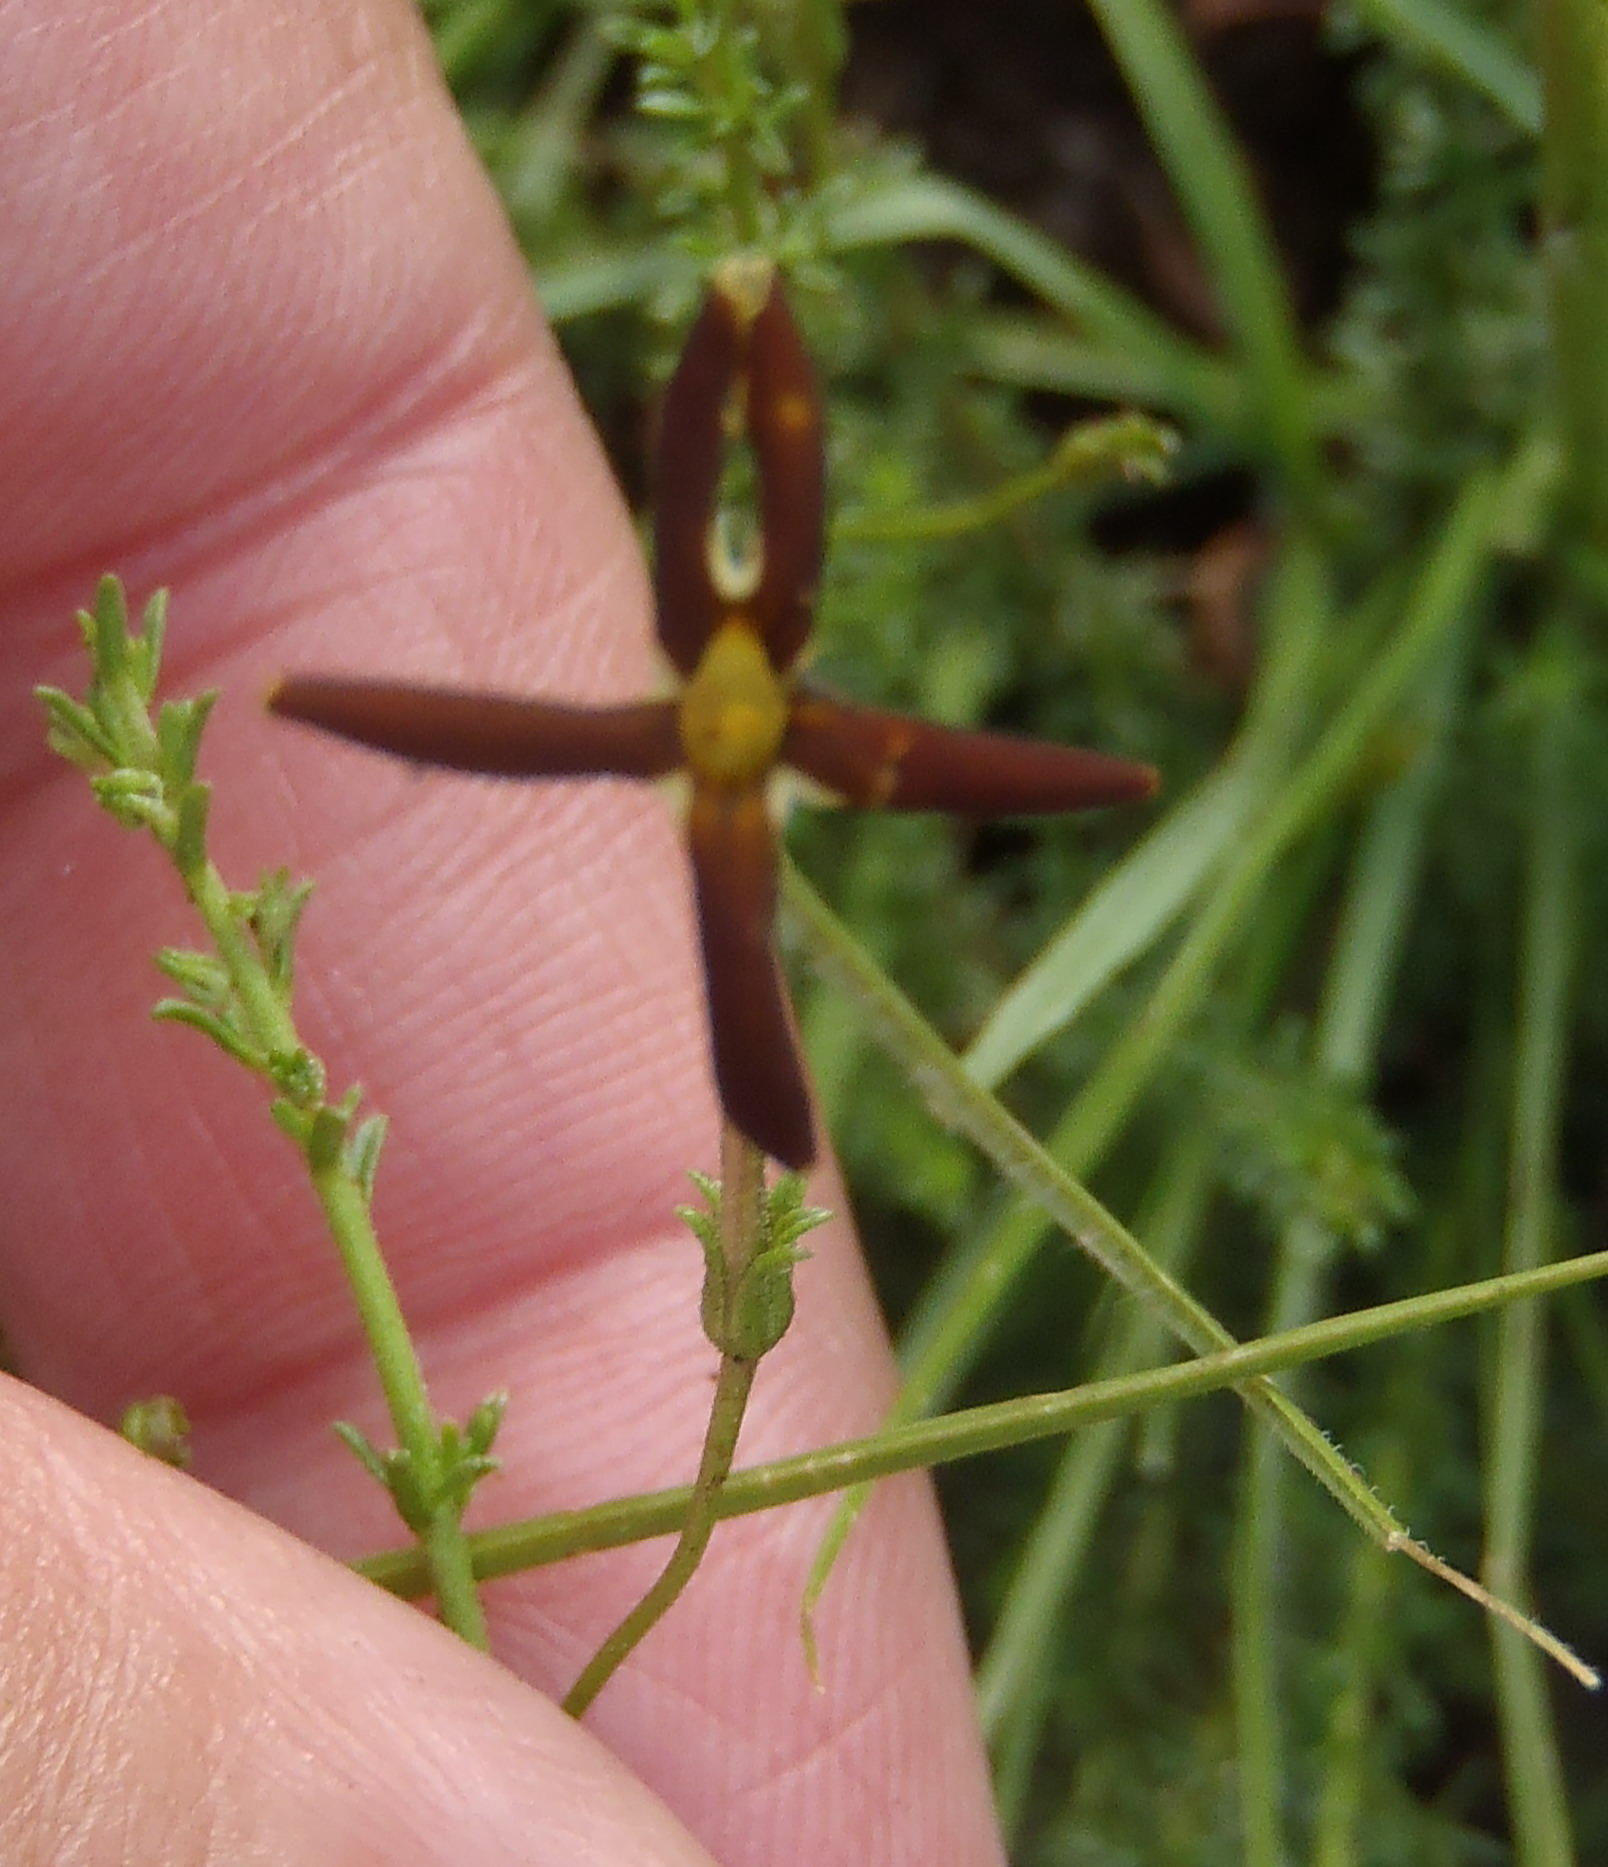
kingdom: Plantae
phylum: Tracheophyta
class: Magnoliopsida
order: Lamiales
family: Scrophulariaceae
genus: Jamesbrittenia
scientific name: Jamesbrittenia atropurpurea
